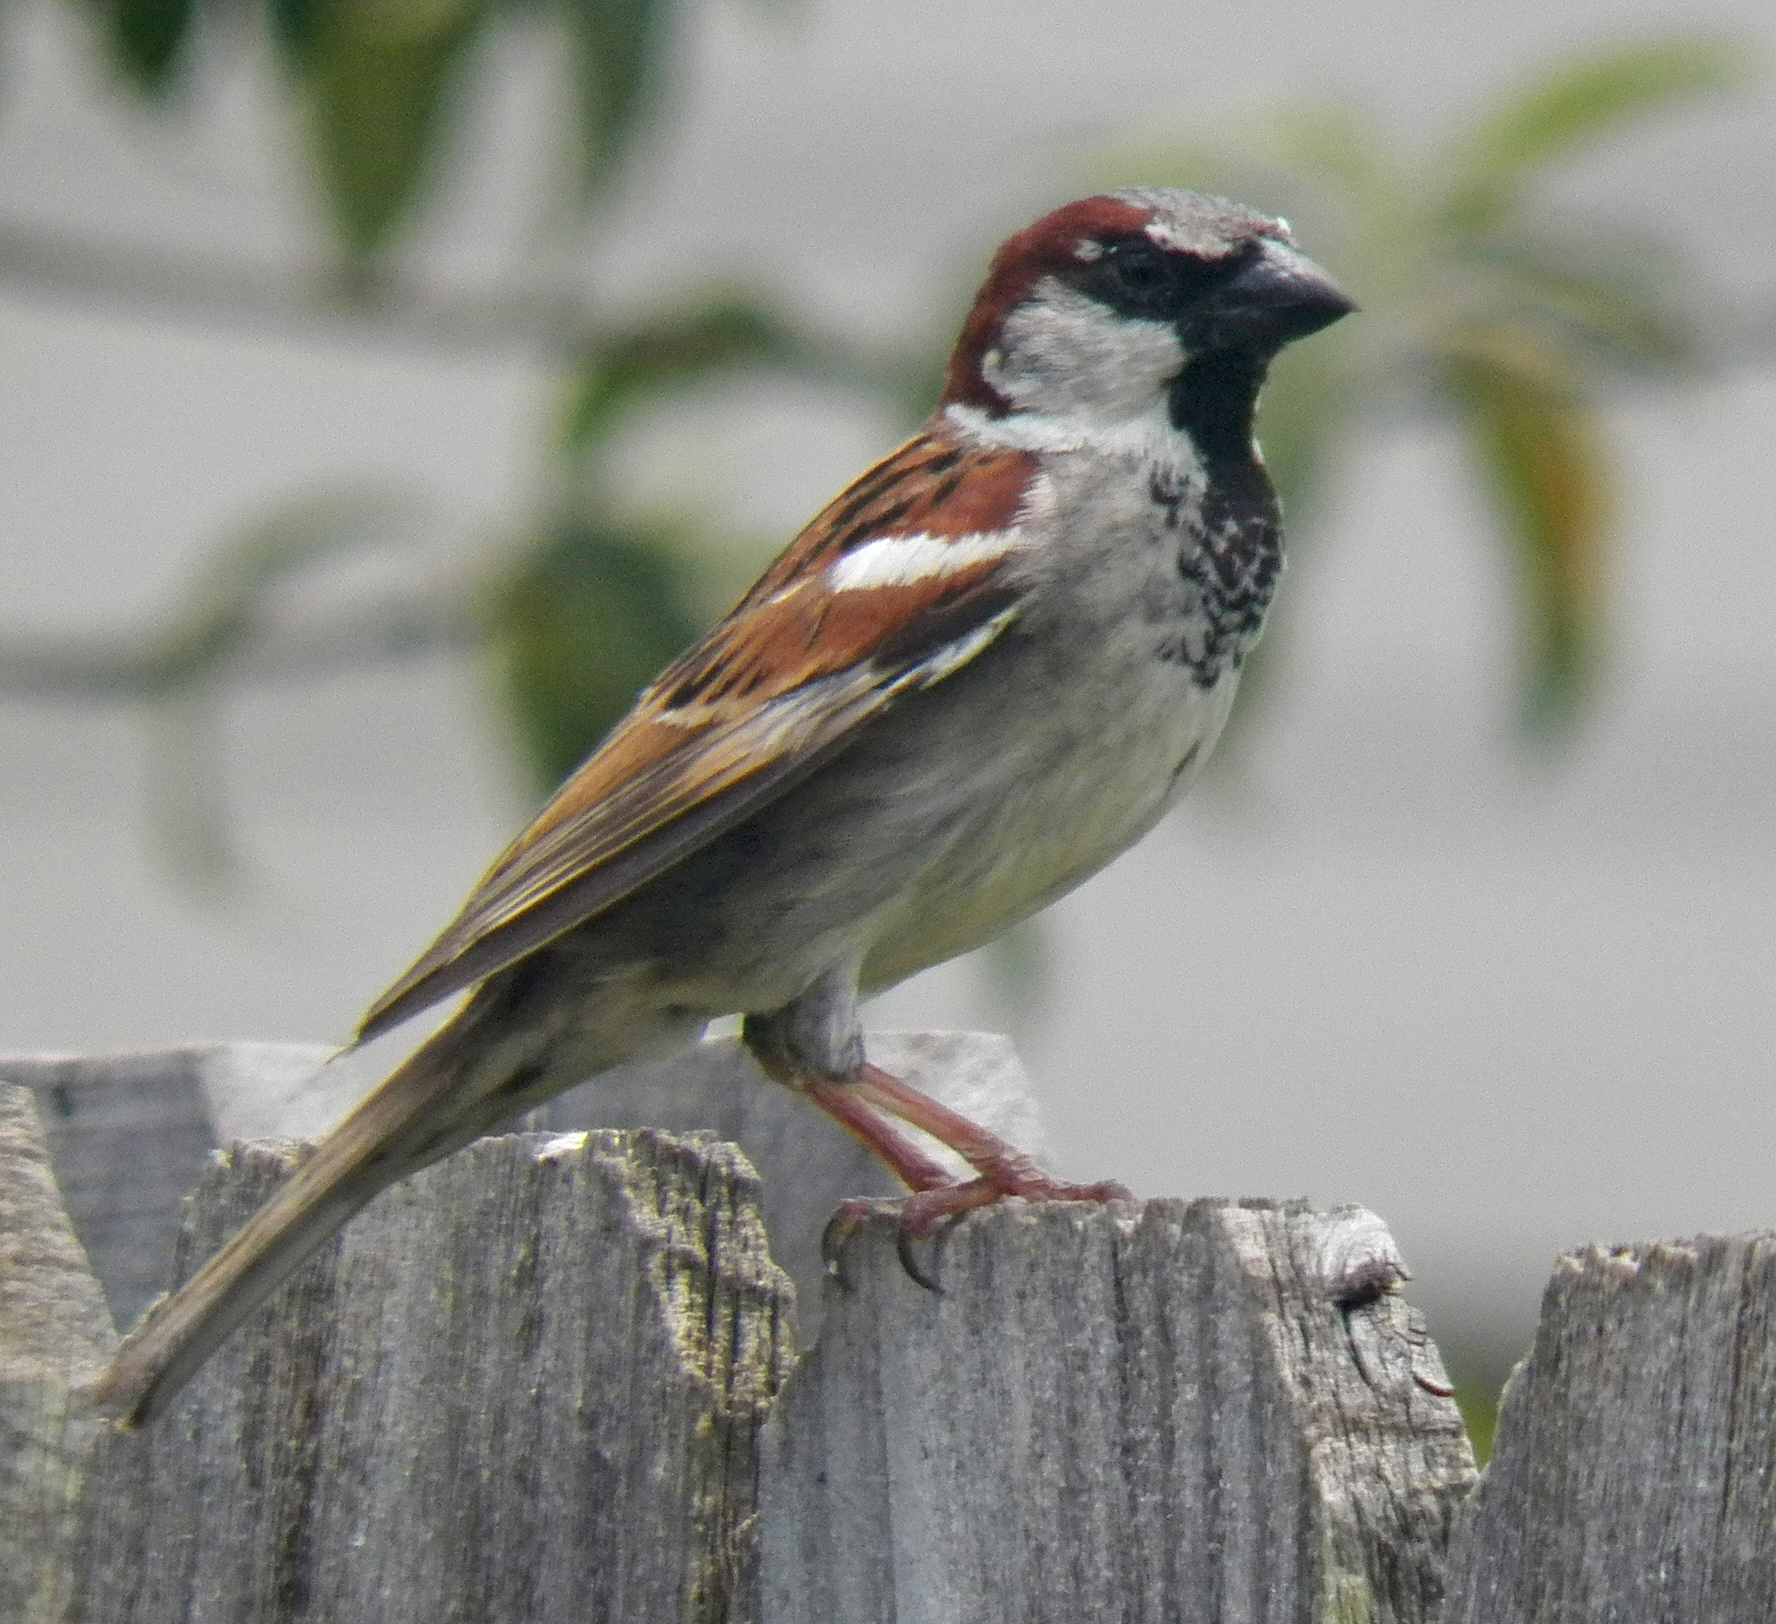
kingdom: Animalia
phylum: Chordata
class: Aves
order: Passeriformes
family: Passeridae
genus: Passer
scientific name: Passer domesticus
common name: House sparrow
